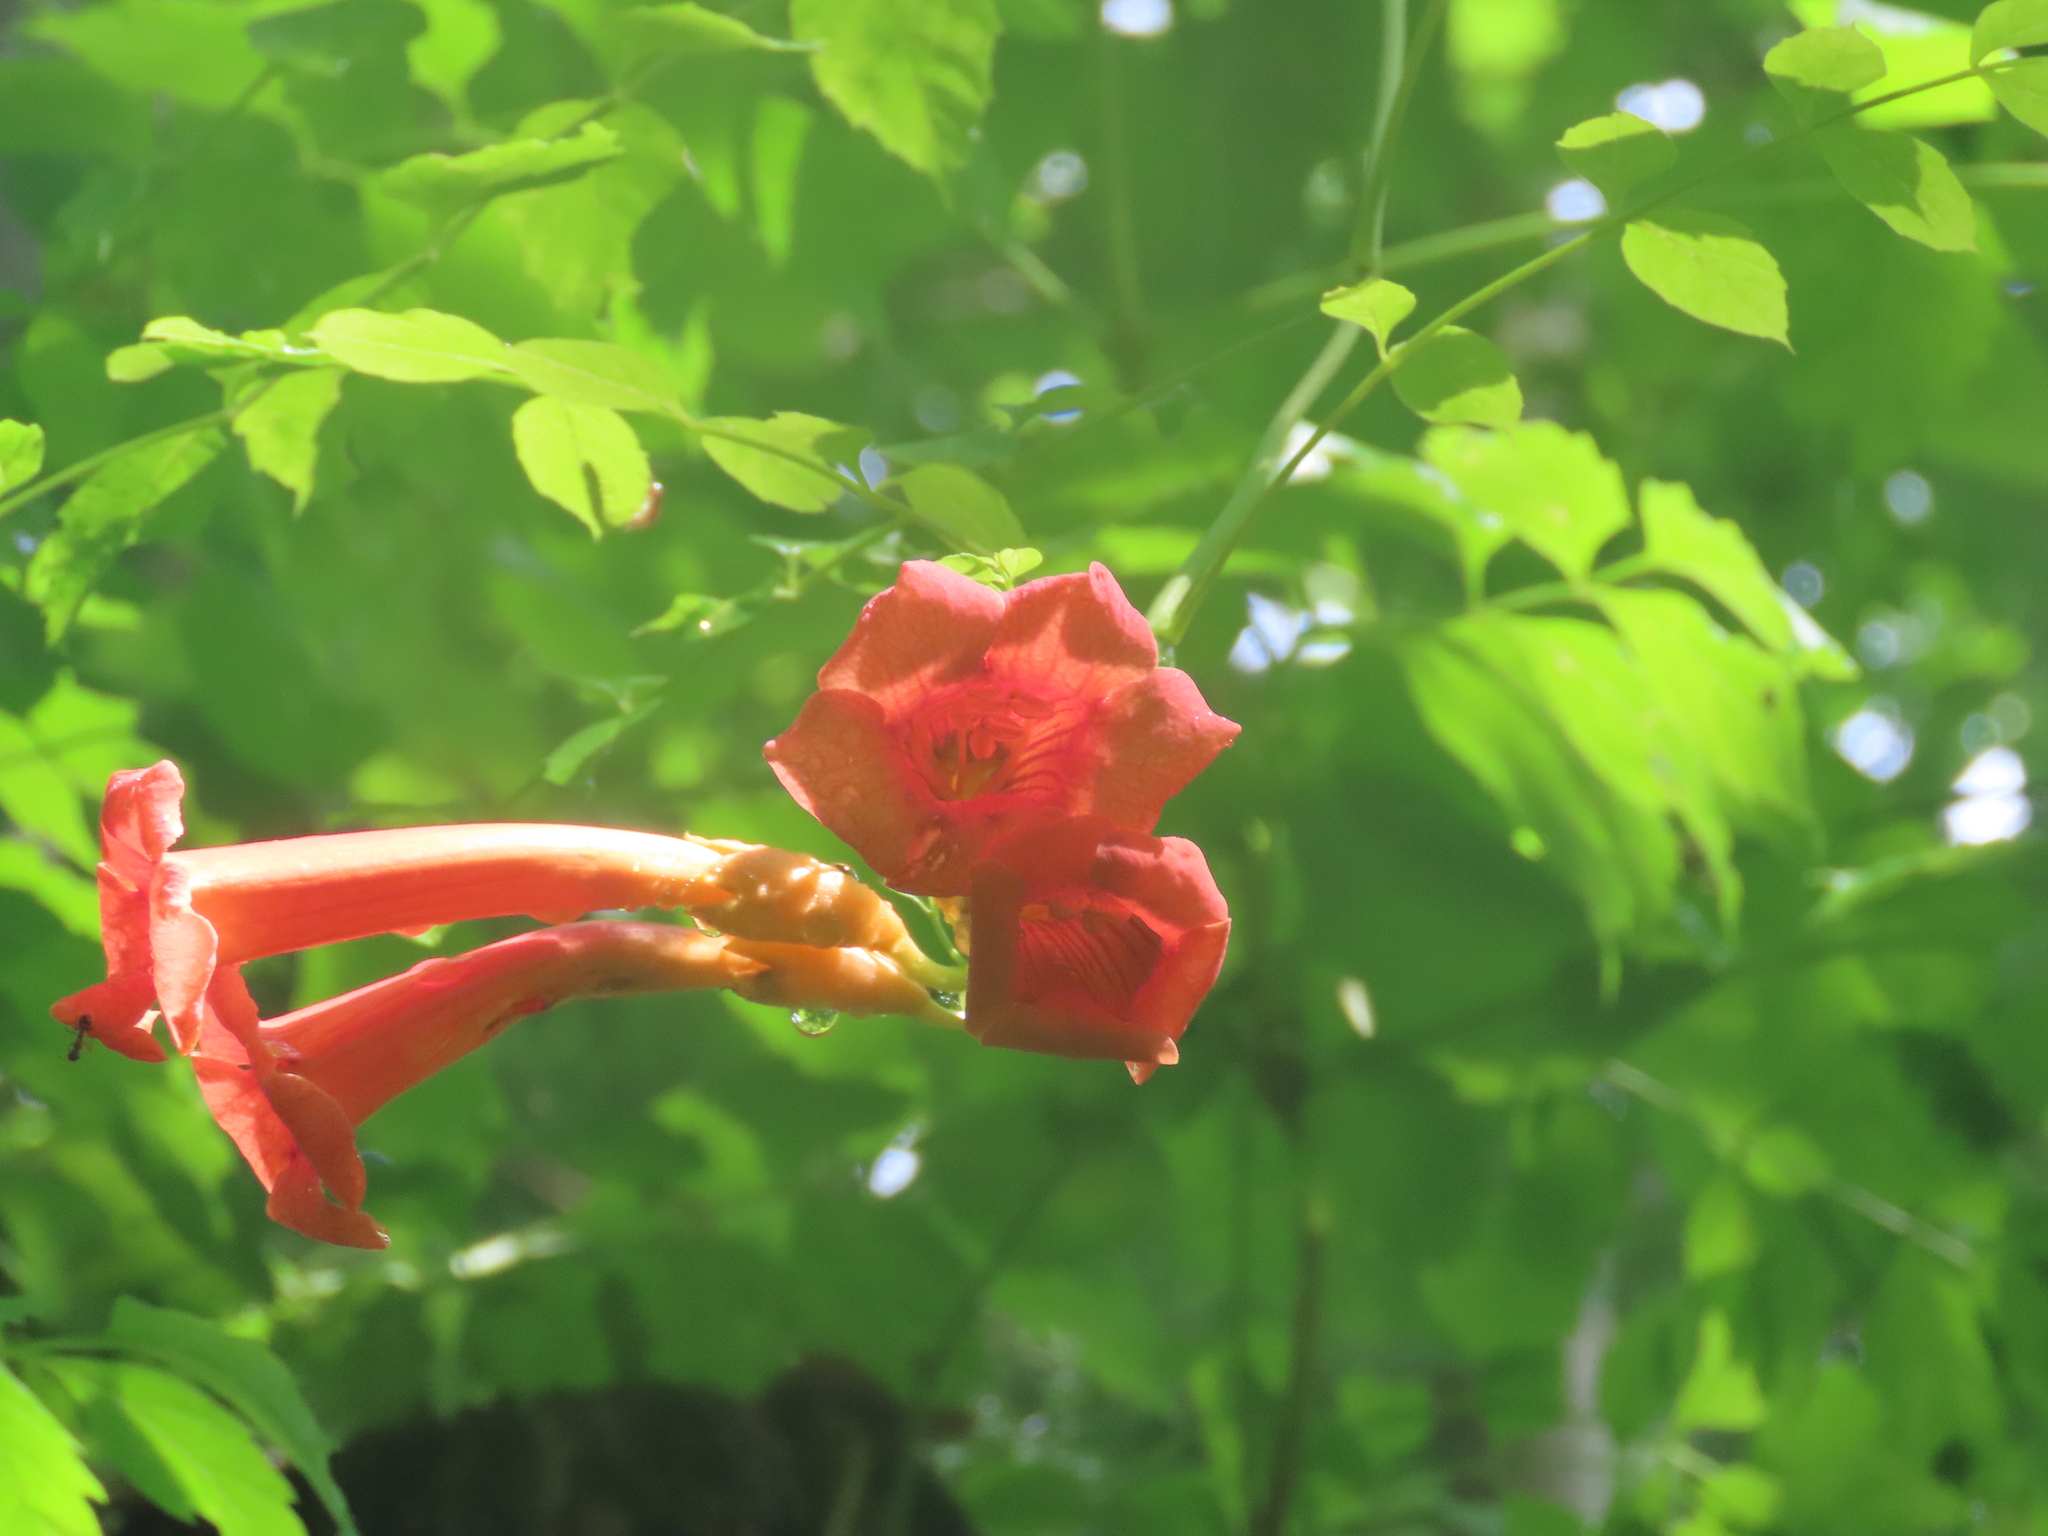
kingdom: Plantae
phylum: Tracheophyta
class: Magnoliopsida
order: Lamiales
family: Bignoniaceae
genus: Campsis
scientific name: Campsis radicans
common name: Trumpet-creeper
